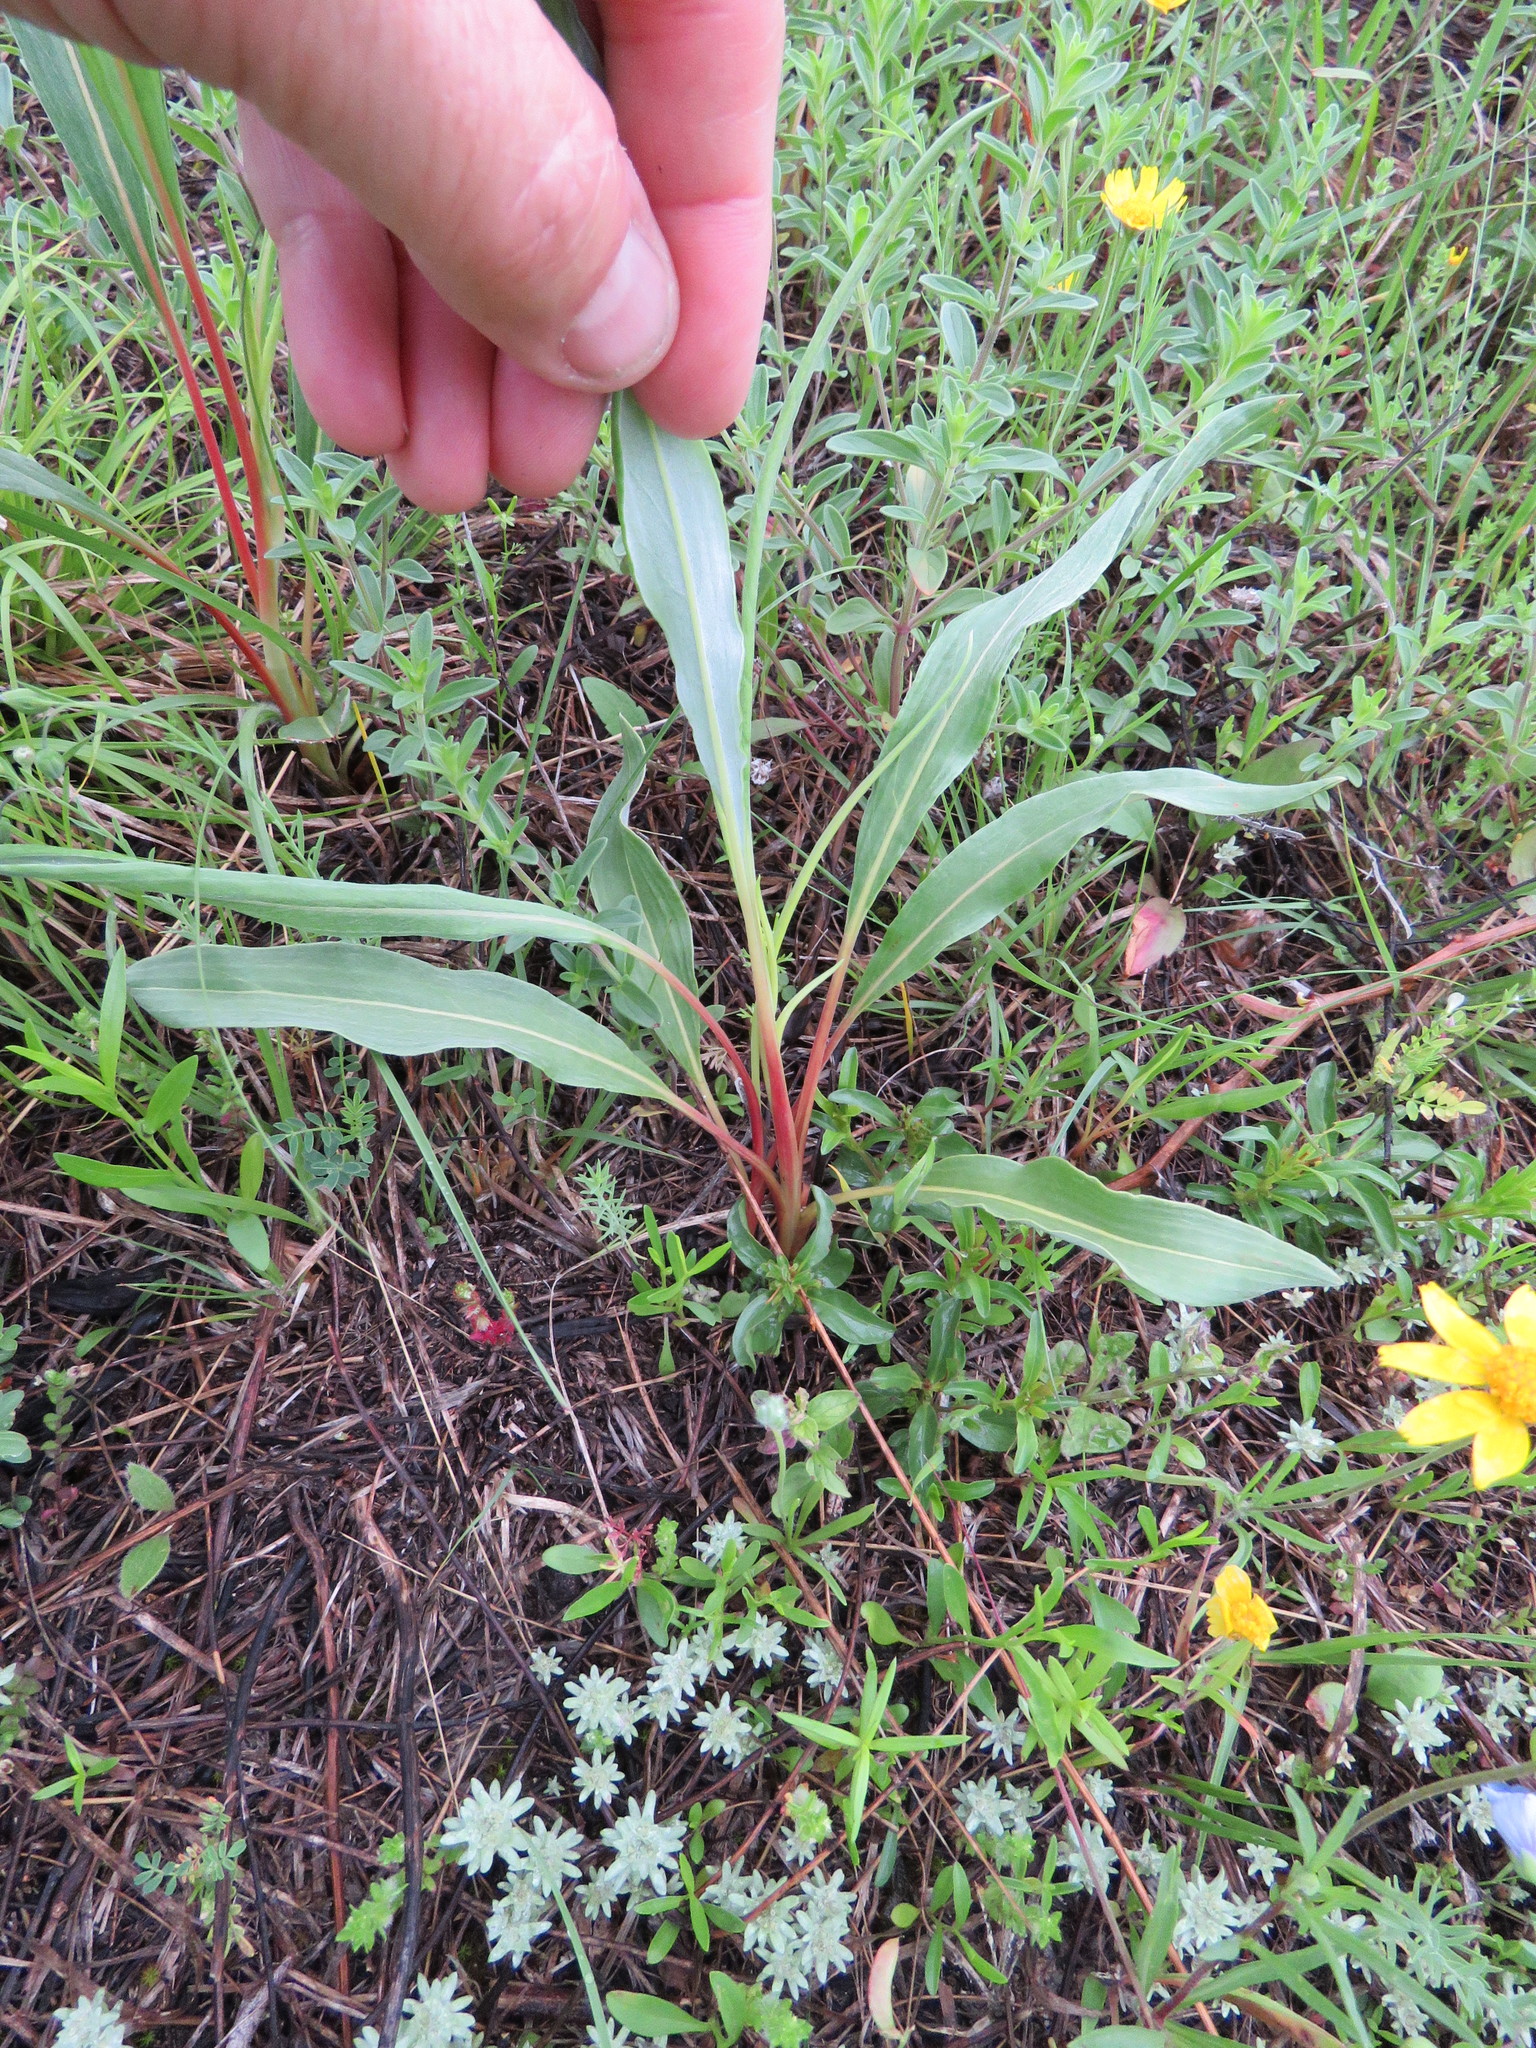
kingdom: Plantae
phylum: Tracheophyta
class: Magnoliopsida
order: Caryophyllales
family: Polygonaceae
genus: Eriogonum
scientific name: Eriogonum longifolium
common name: Longleaf wild buckwheat
